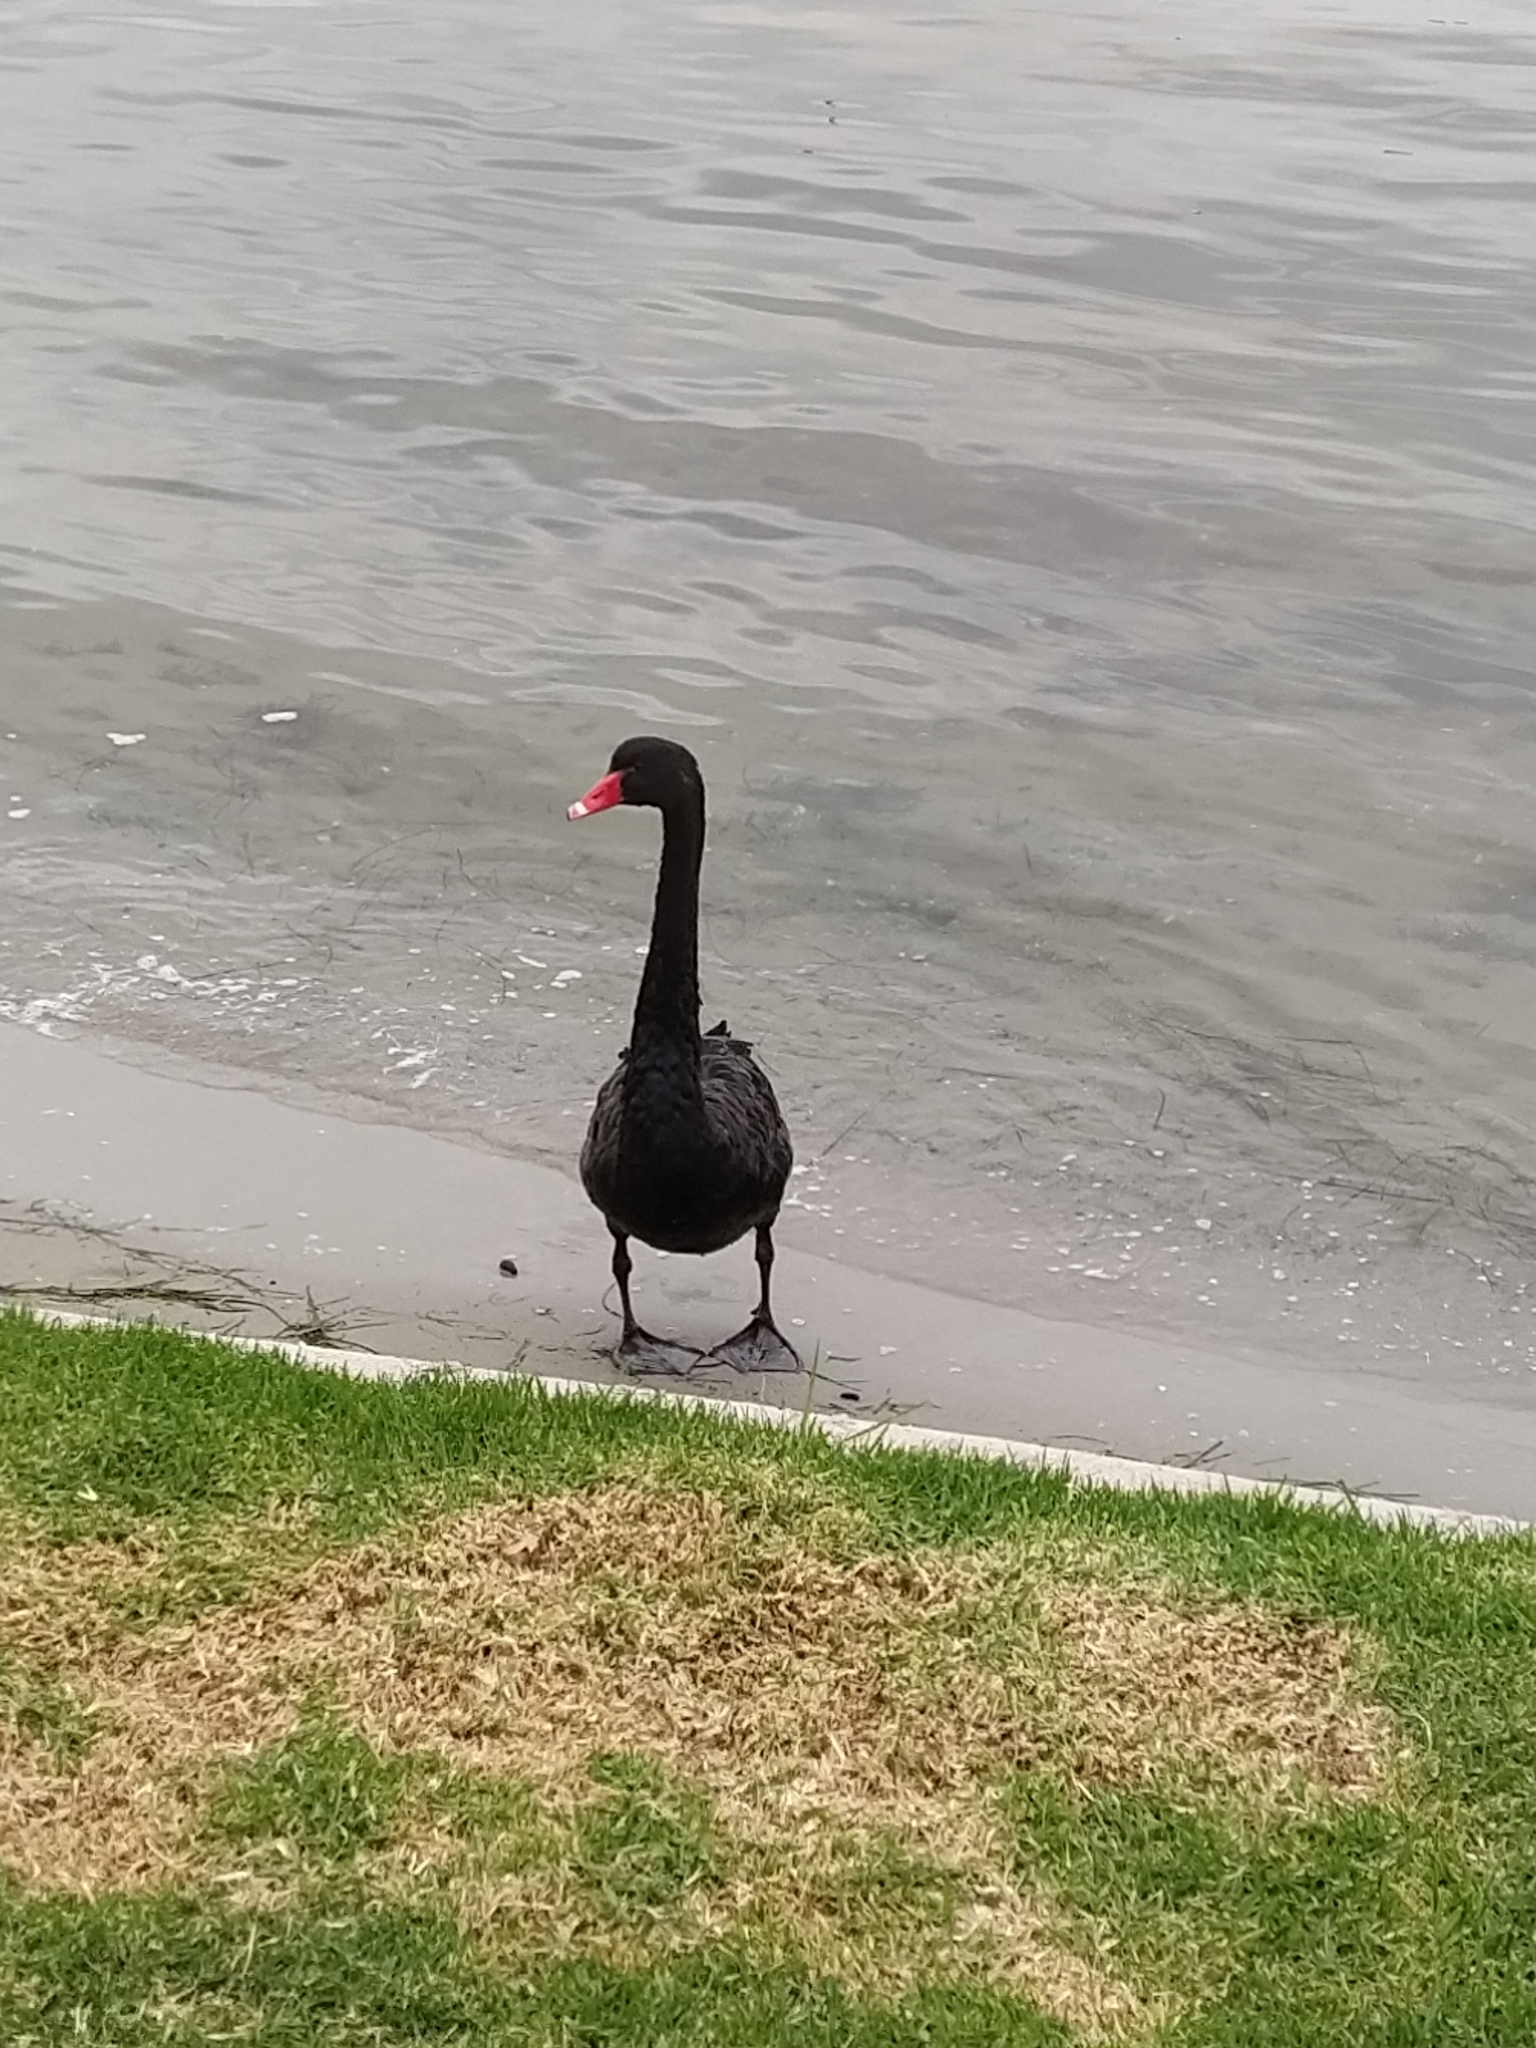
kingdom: Animalia
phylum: Chordata
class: Aves
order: Anseriformes
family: Anatidae
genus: Cygnus
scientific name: Cygnus atratus
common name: Black swan
